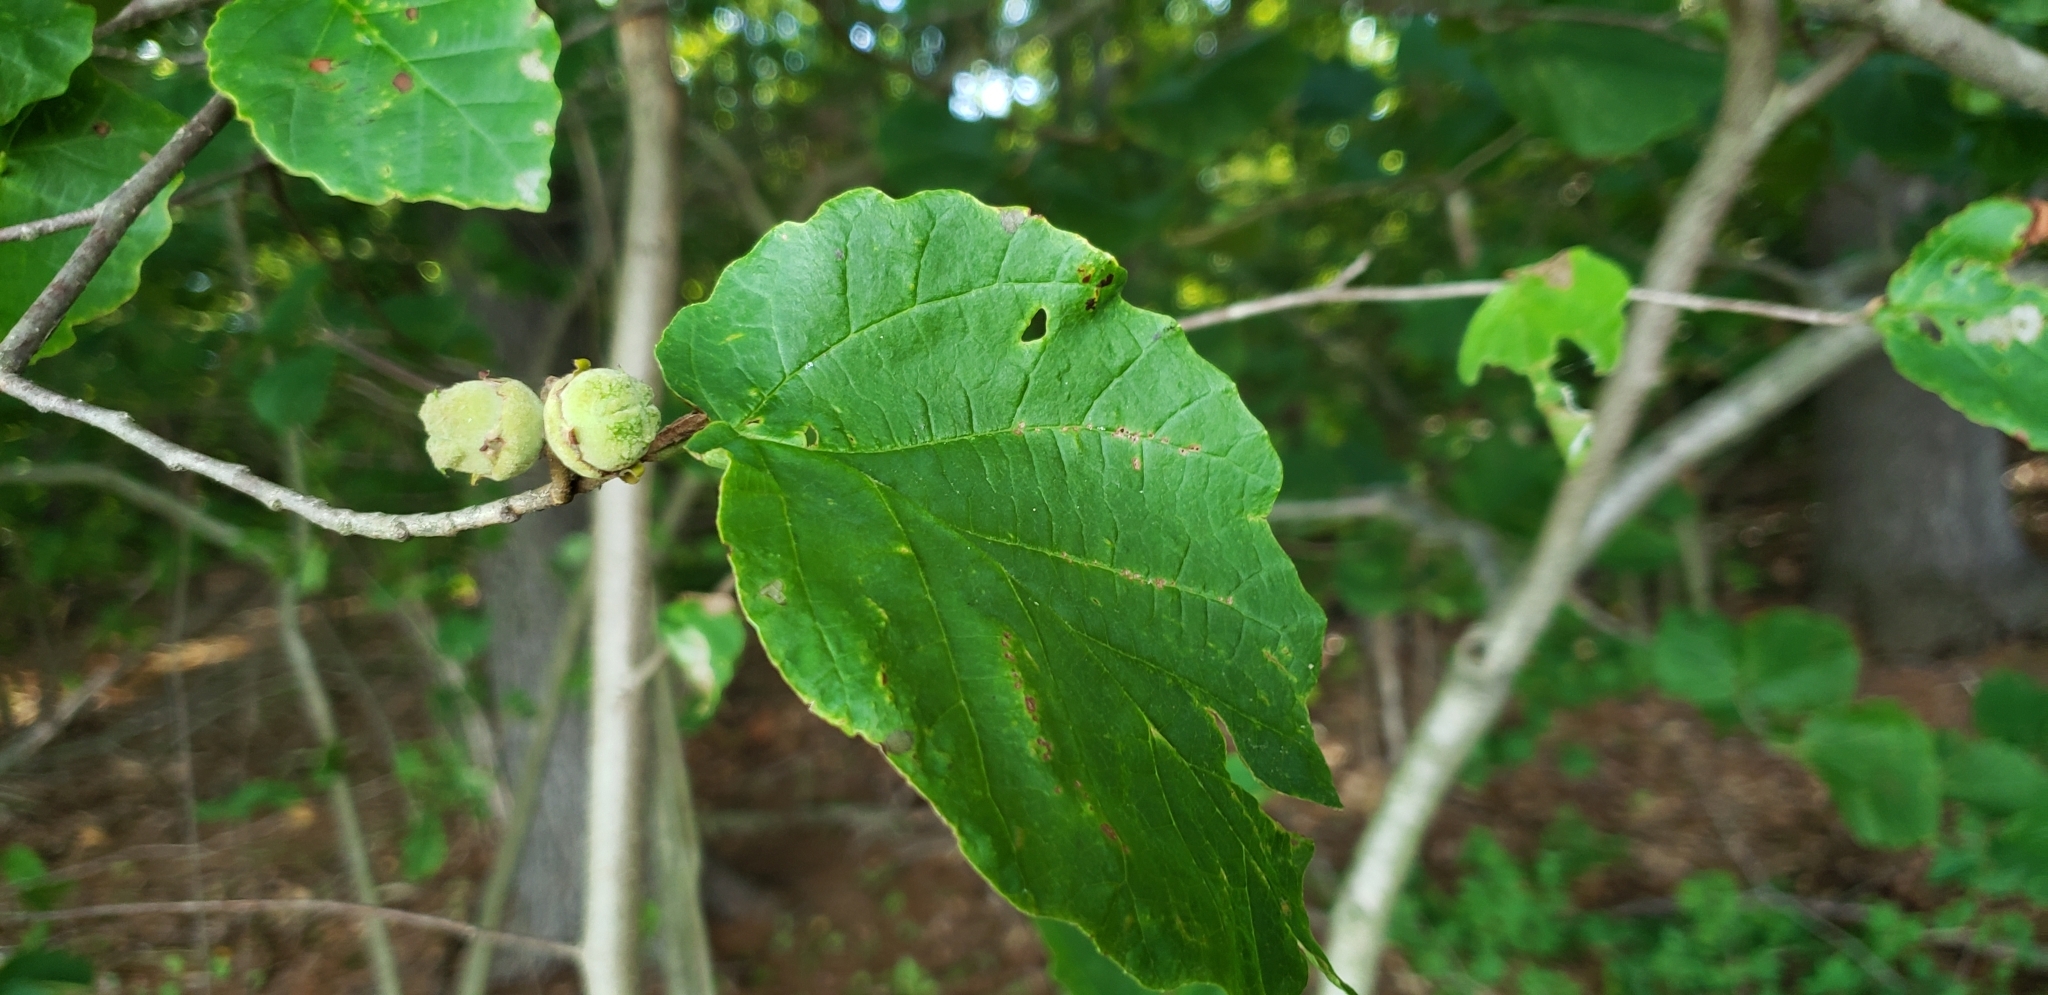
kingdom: Plantae
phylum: Tracheophyta
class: Magnoliopsida
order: Saxifragales
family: Hamamelidaceae
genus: Hamamelis
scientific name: Hamamelis virginiana
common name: Witch-hazel
